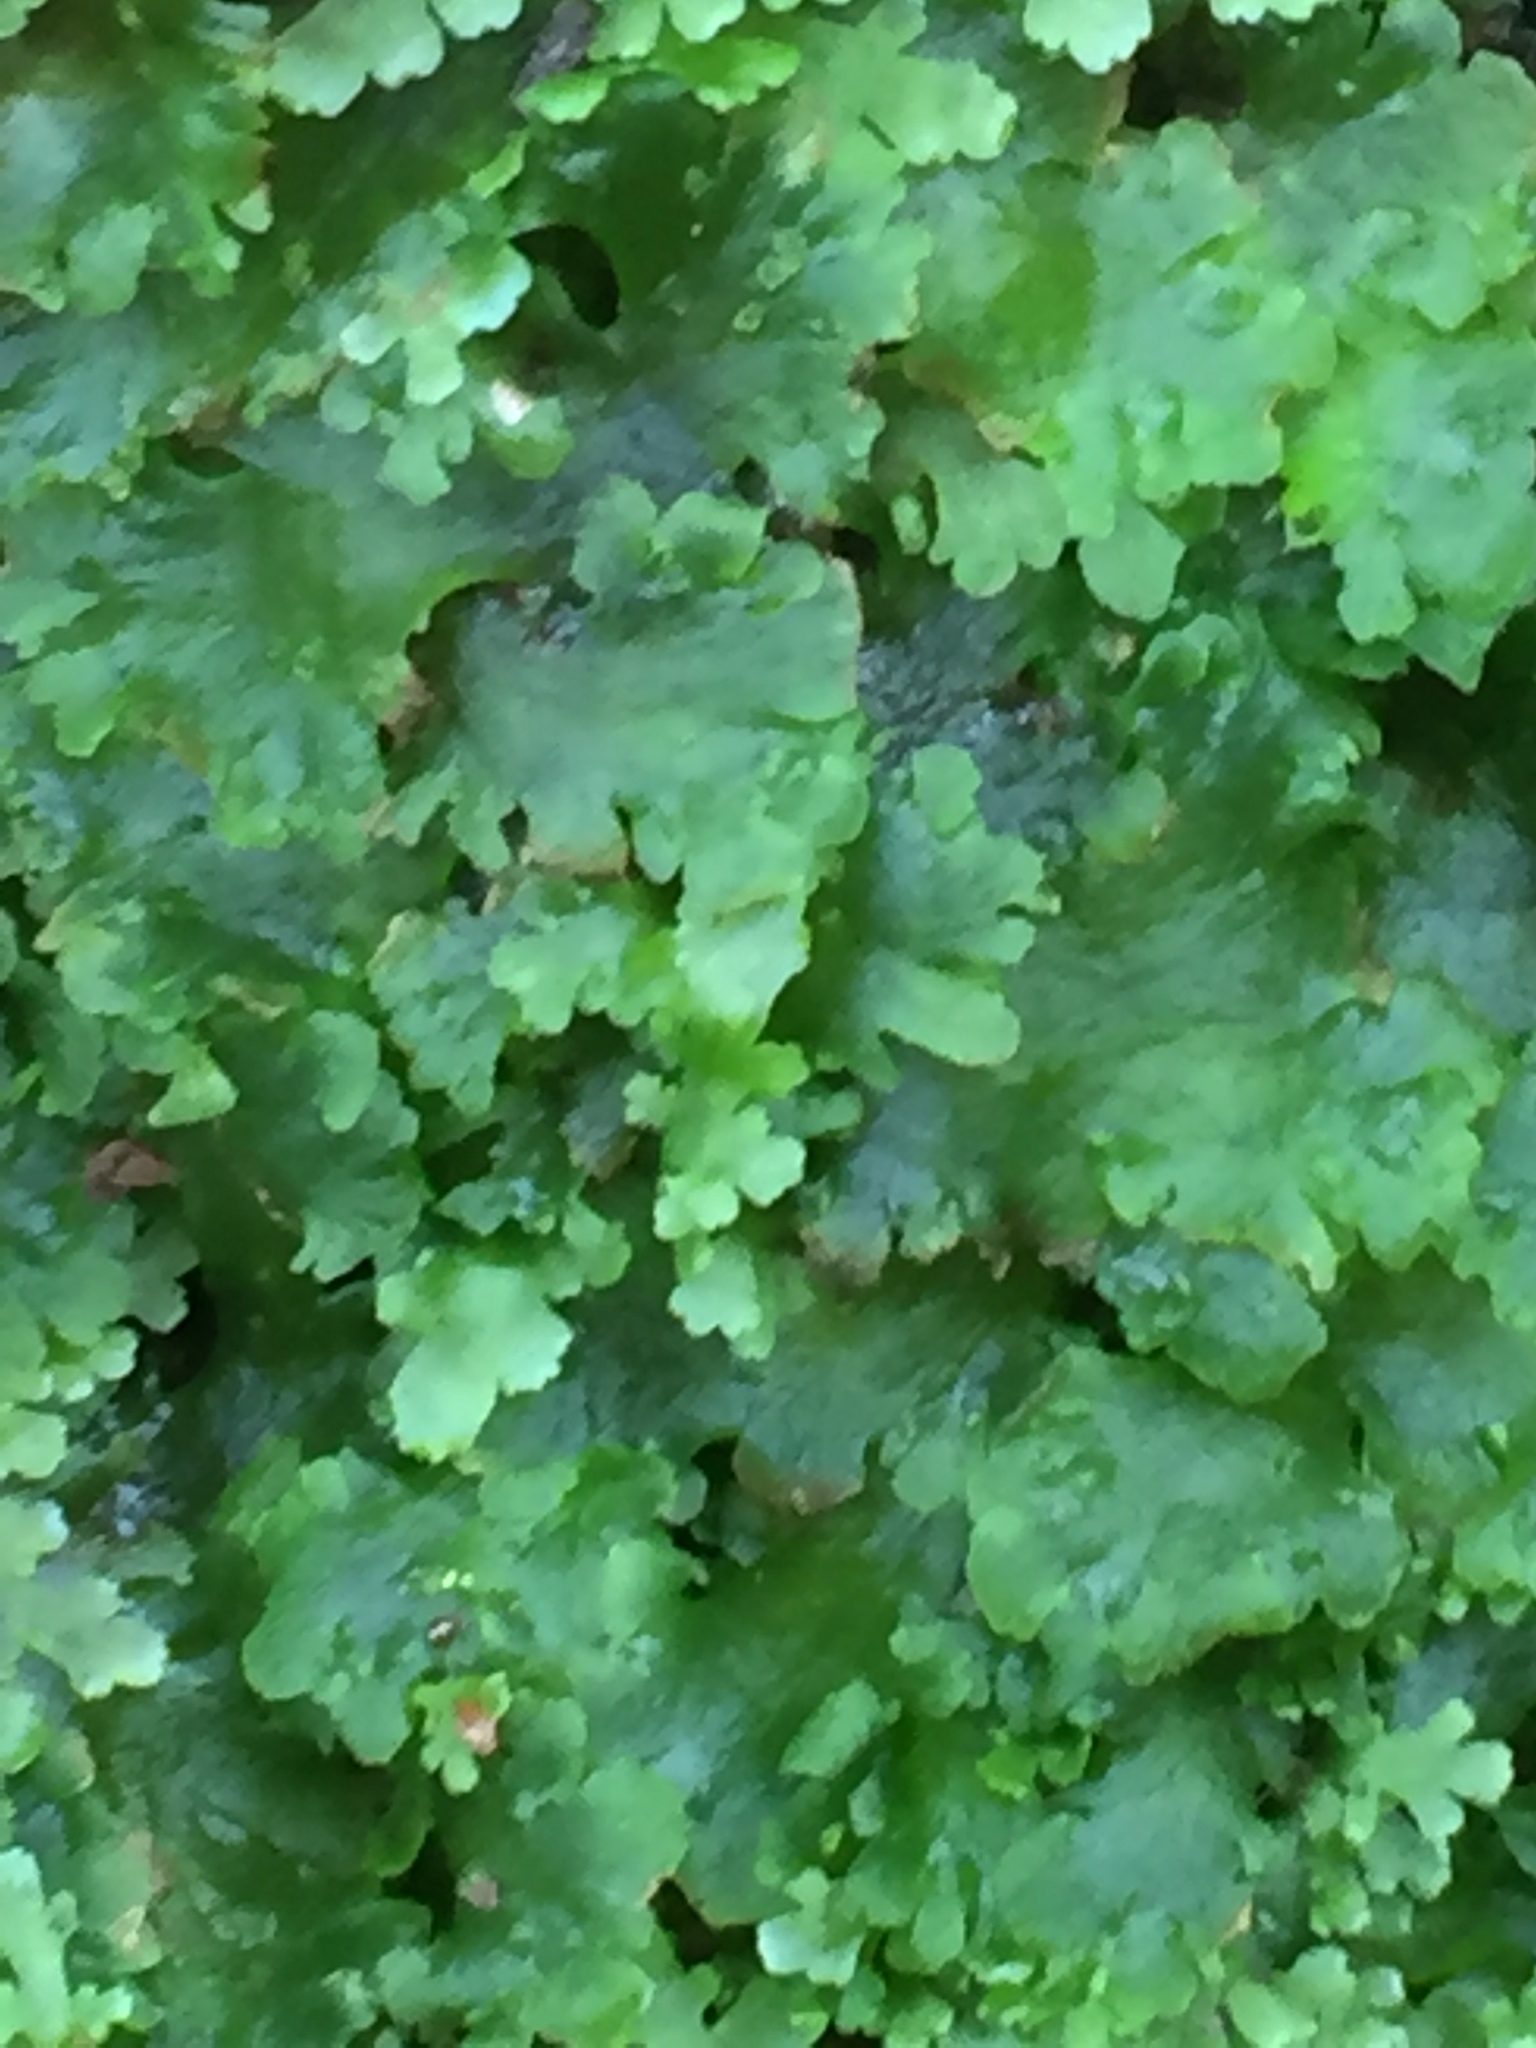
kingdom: Plantae
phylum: Marchantiophyta
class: Jungermanniopsida
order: Pelliales
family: Pelliaceae
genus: Apopellia
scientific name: Apopellia endiviifolia
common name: Endive pellia
